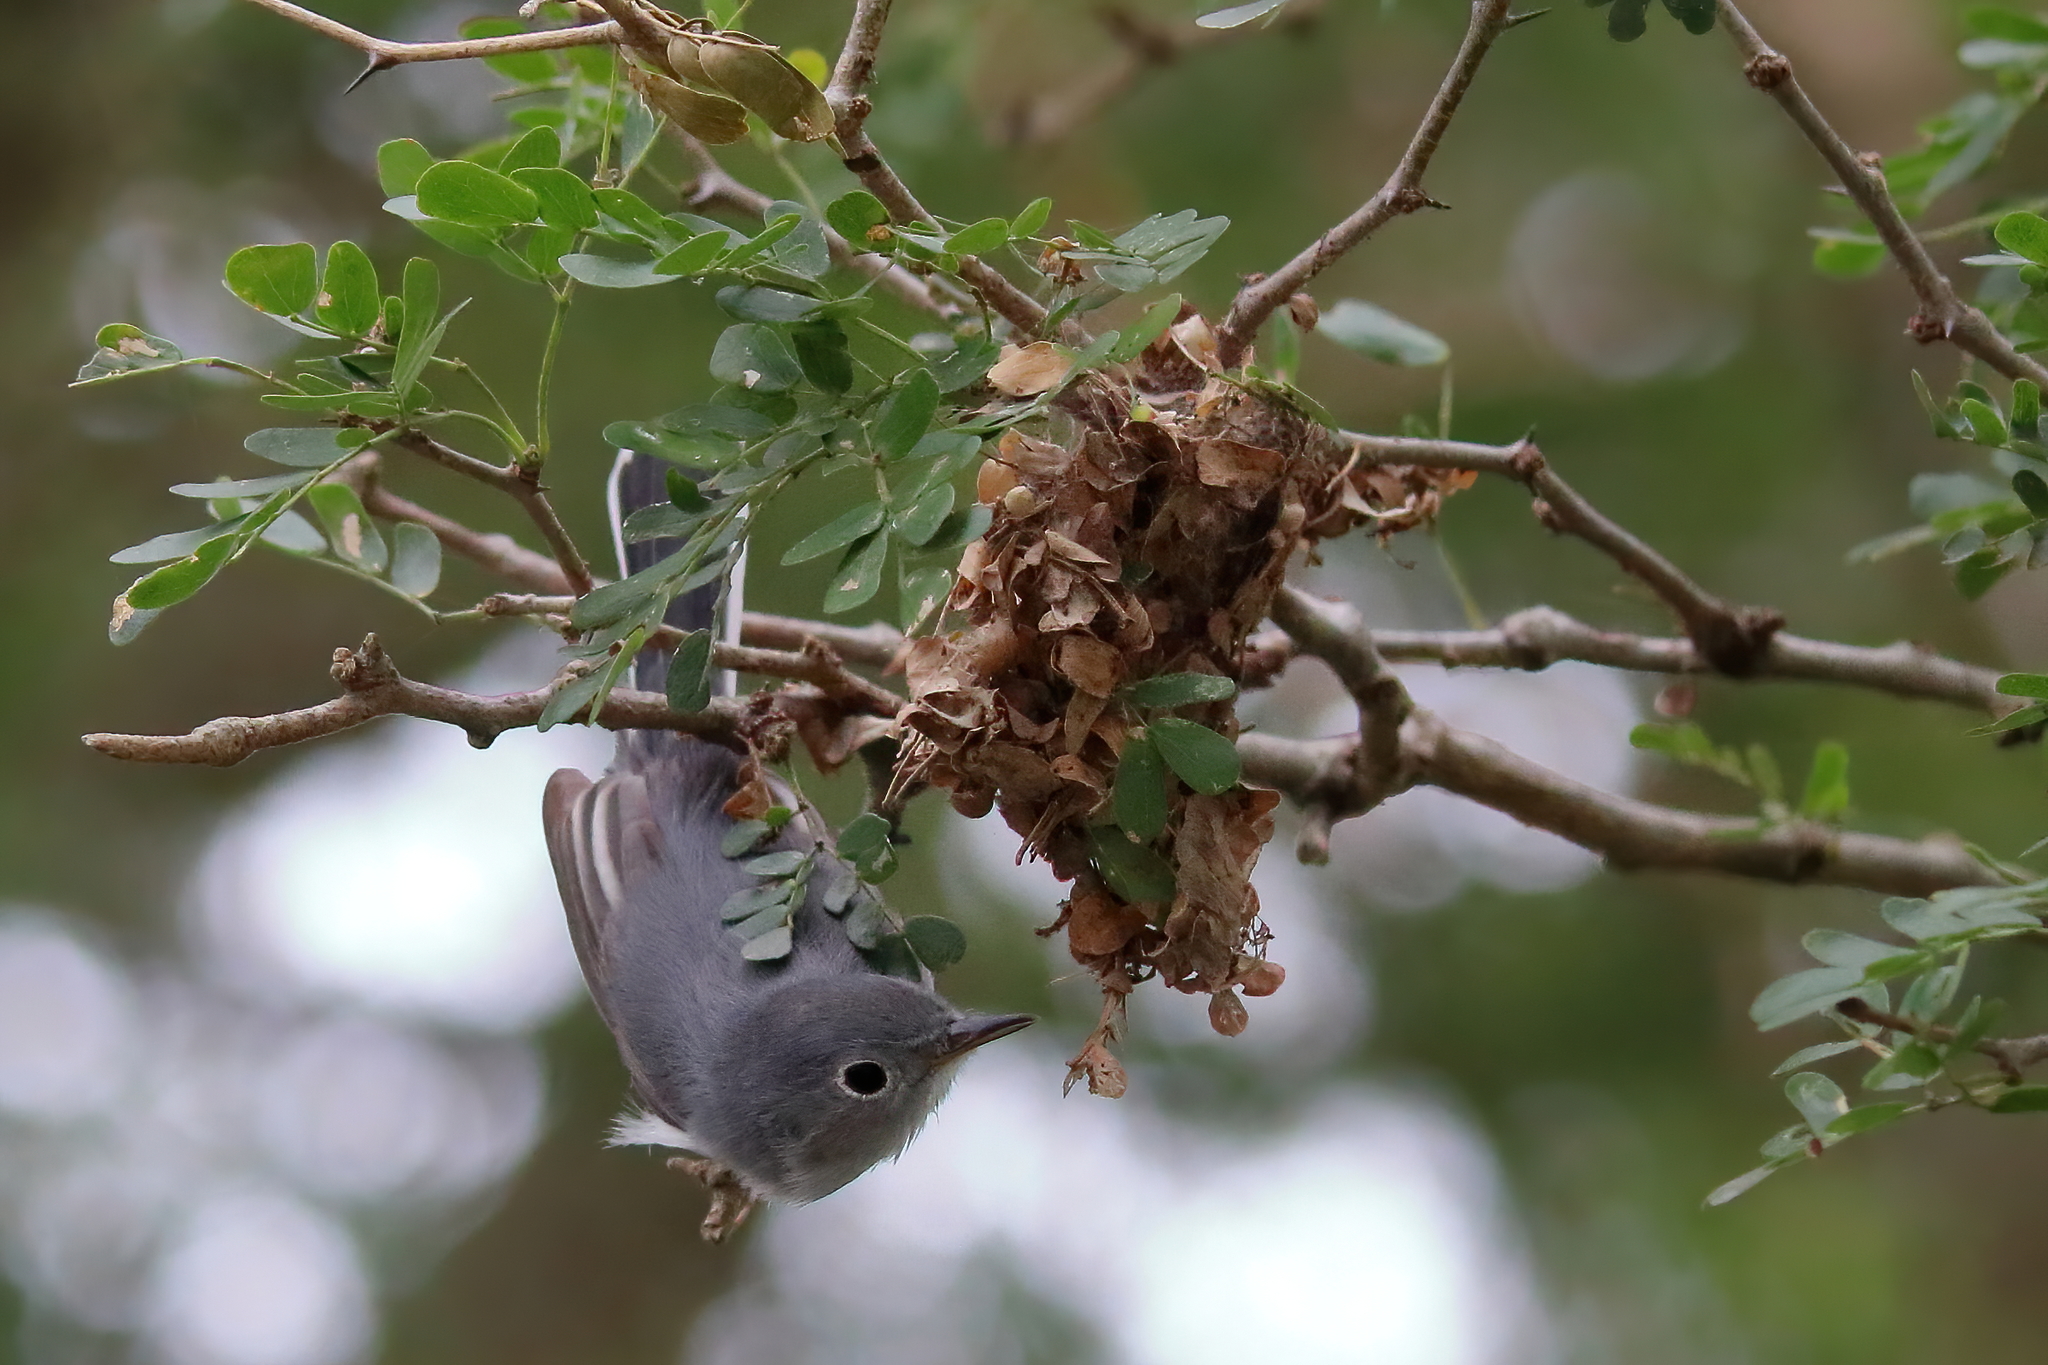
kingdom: Animalia
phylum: Chordata
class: Aves
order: Passeriformes
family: Polioptilidae
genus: Polioptila
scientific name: Polioptila caerulea
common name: Blue-gray gnatcatcher
